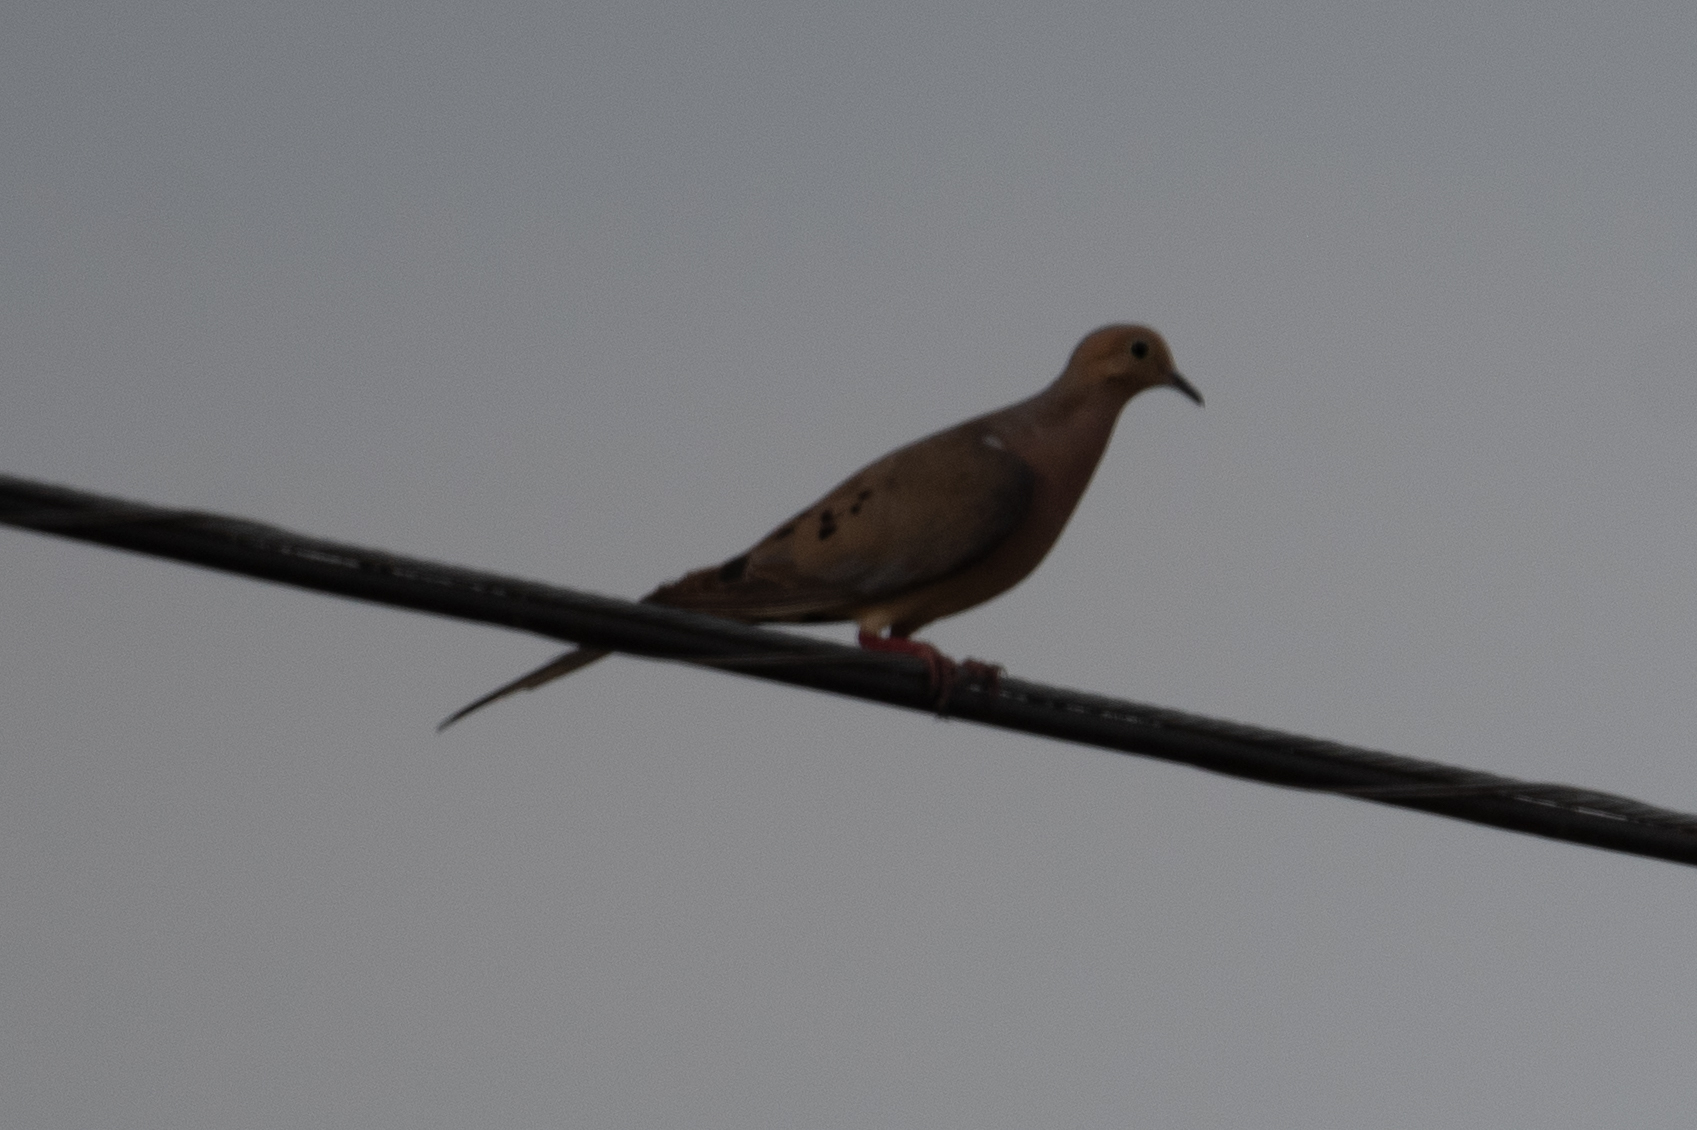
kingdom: Animalia
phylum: Chordata
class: Aves
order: Columbiformes
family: Columbidae
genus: Zenaida
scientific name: Zenaida macroura
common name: Mourning dove
